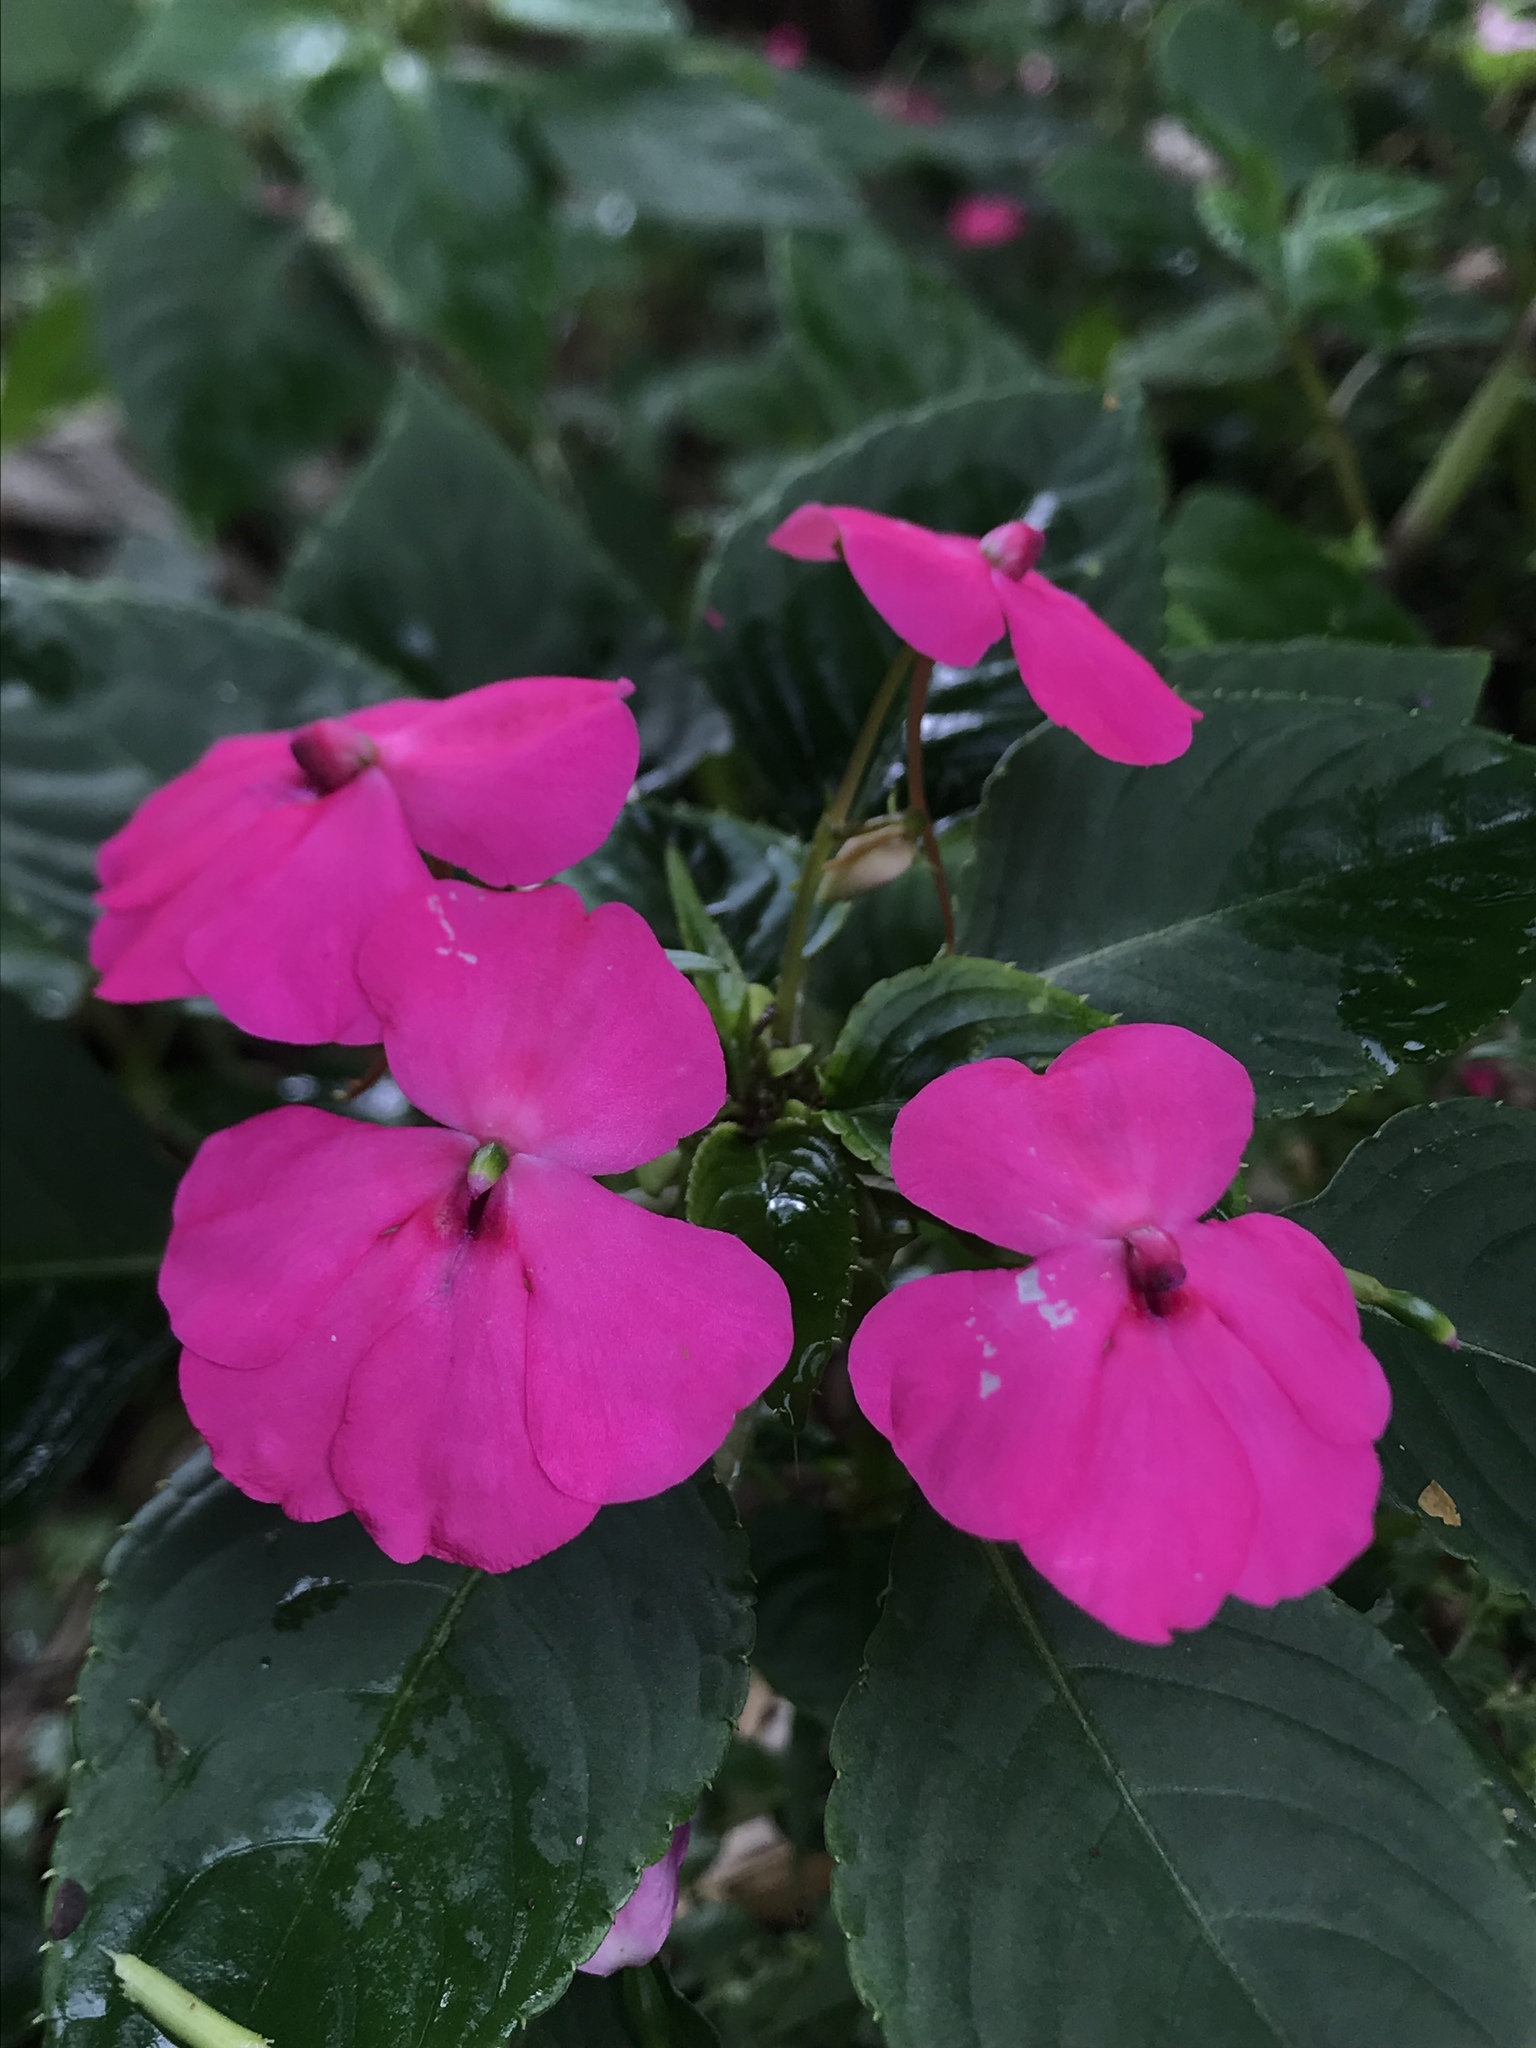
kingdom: Plantae
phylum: Tracheophyta
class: Magnoliopsida
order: Ericales
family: Balsaminaceae
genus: Impatiens
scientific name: Impatiens walleriana
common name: Buzzy lizzy
